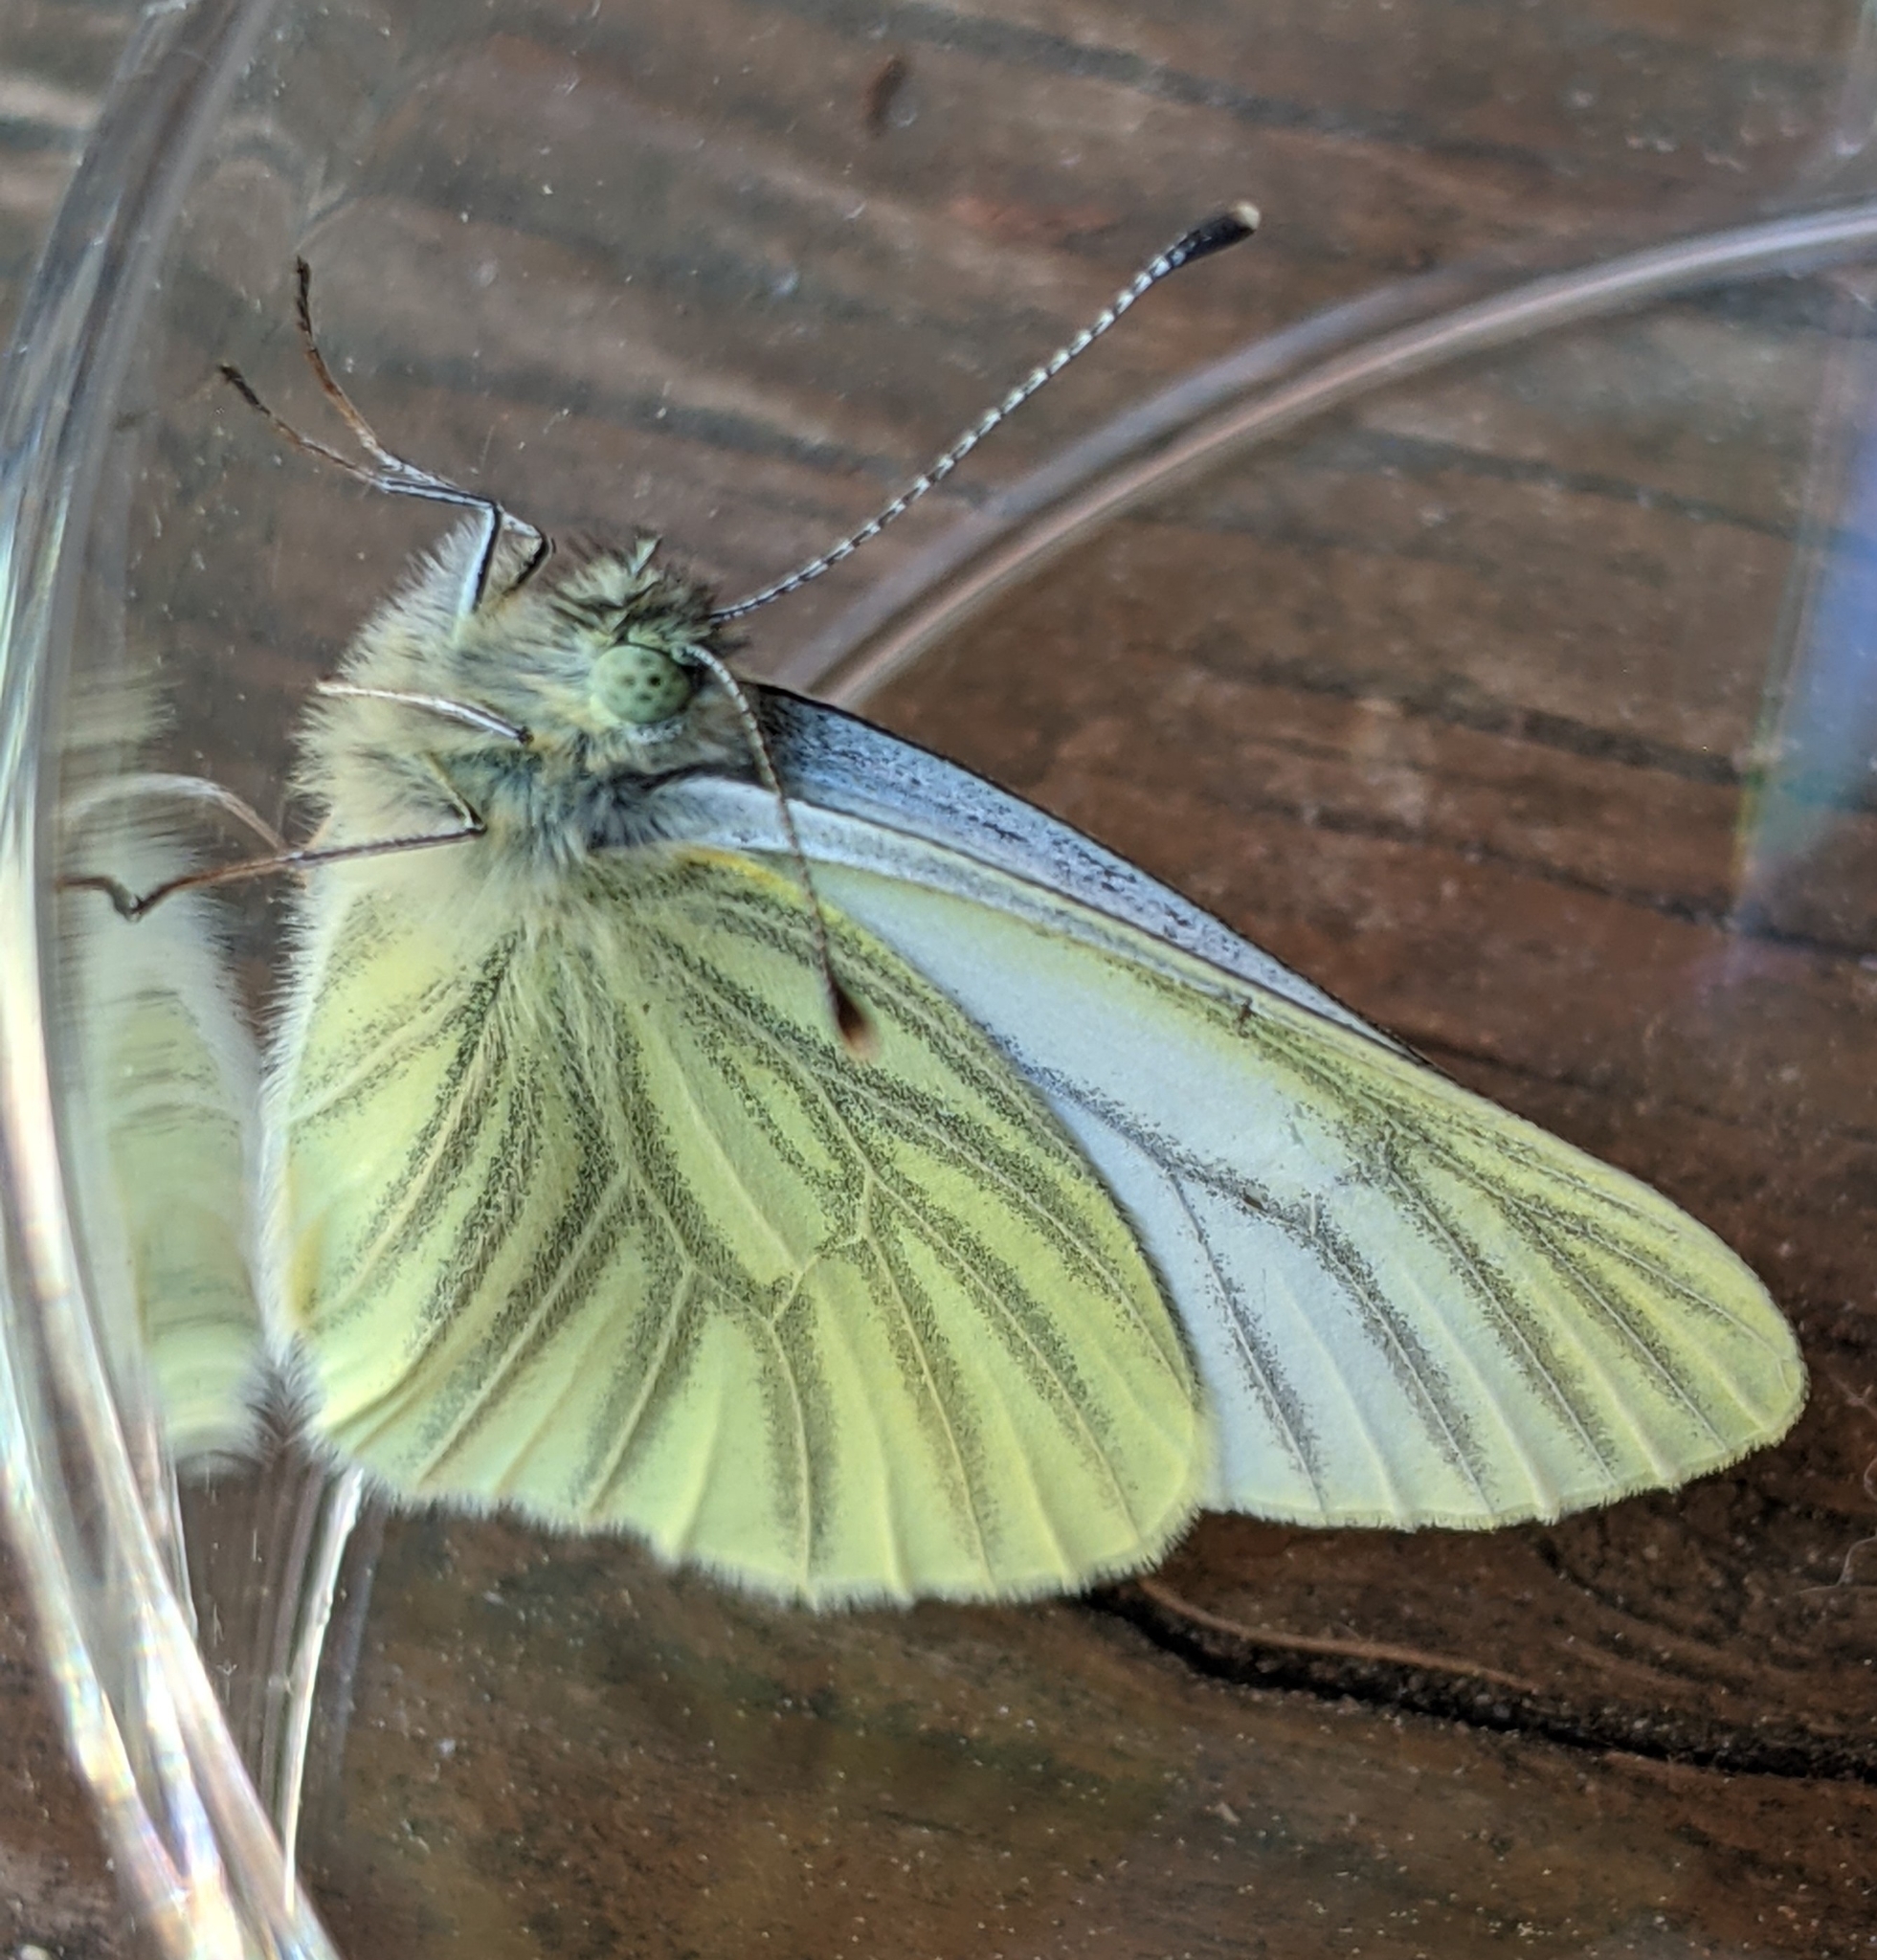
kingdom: Animalia
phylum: Arthropoda
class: Insecta
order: Lepidoptera
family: Pieridae
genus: Pieris
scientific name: Pieris marginalis
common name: Margined white
